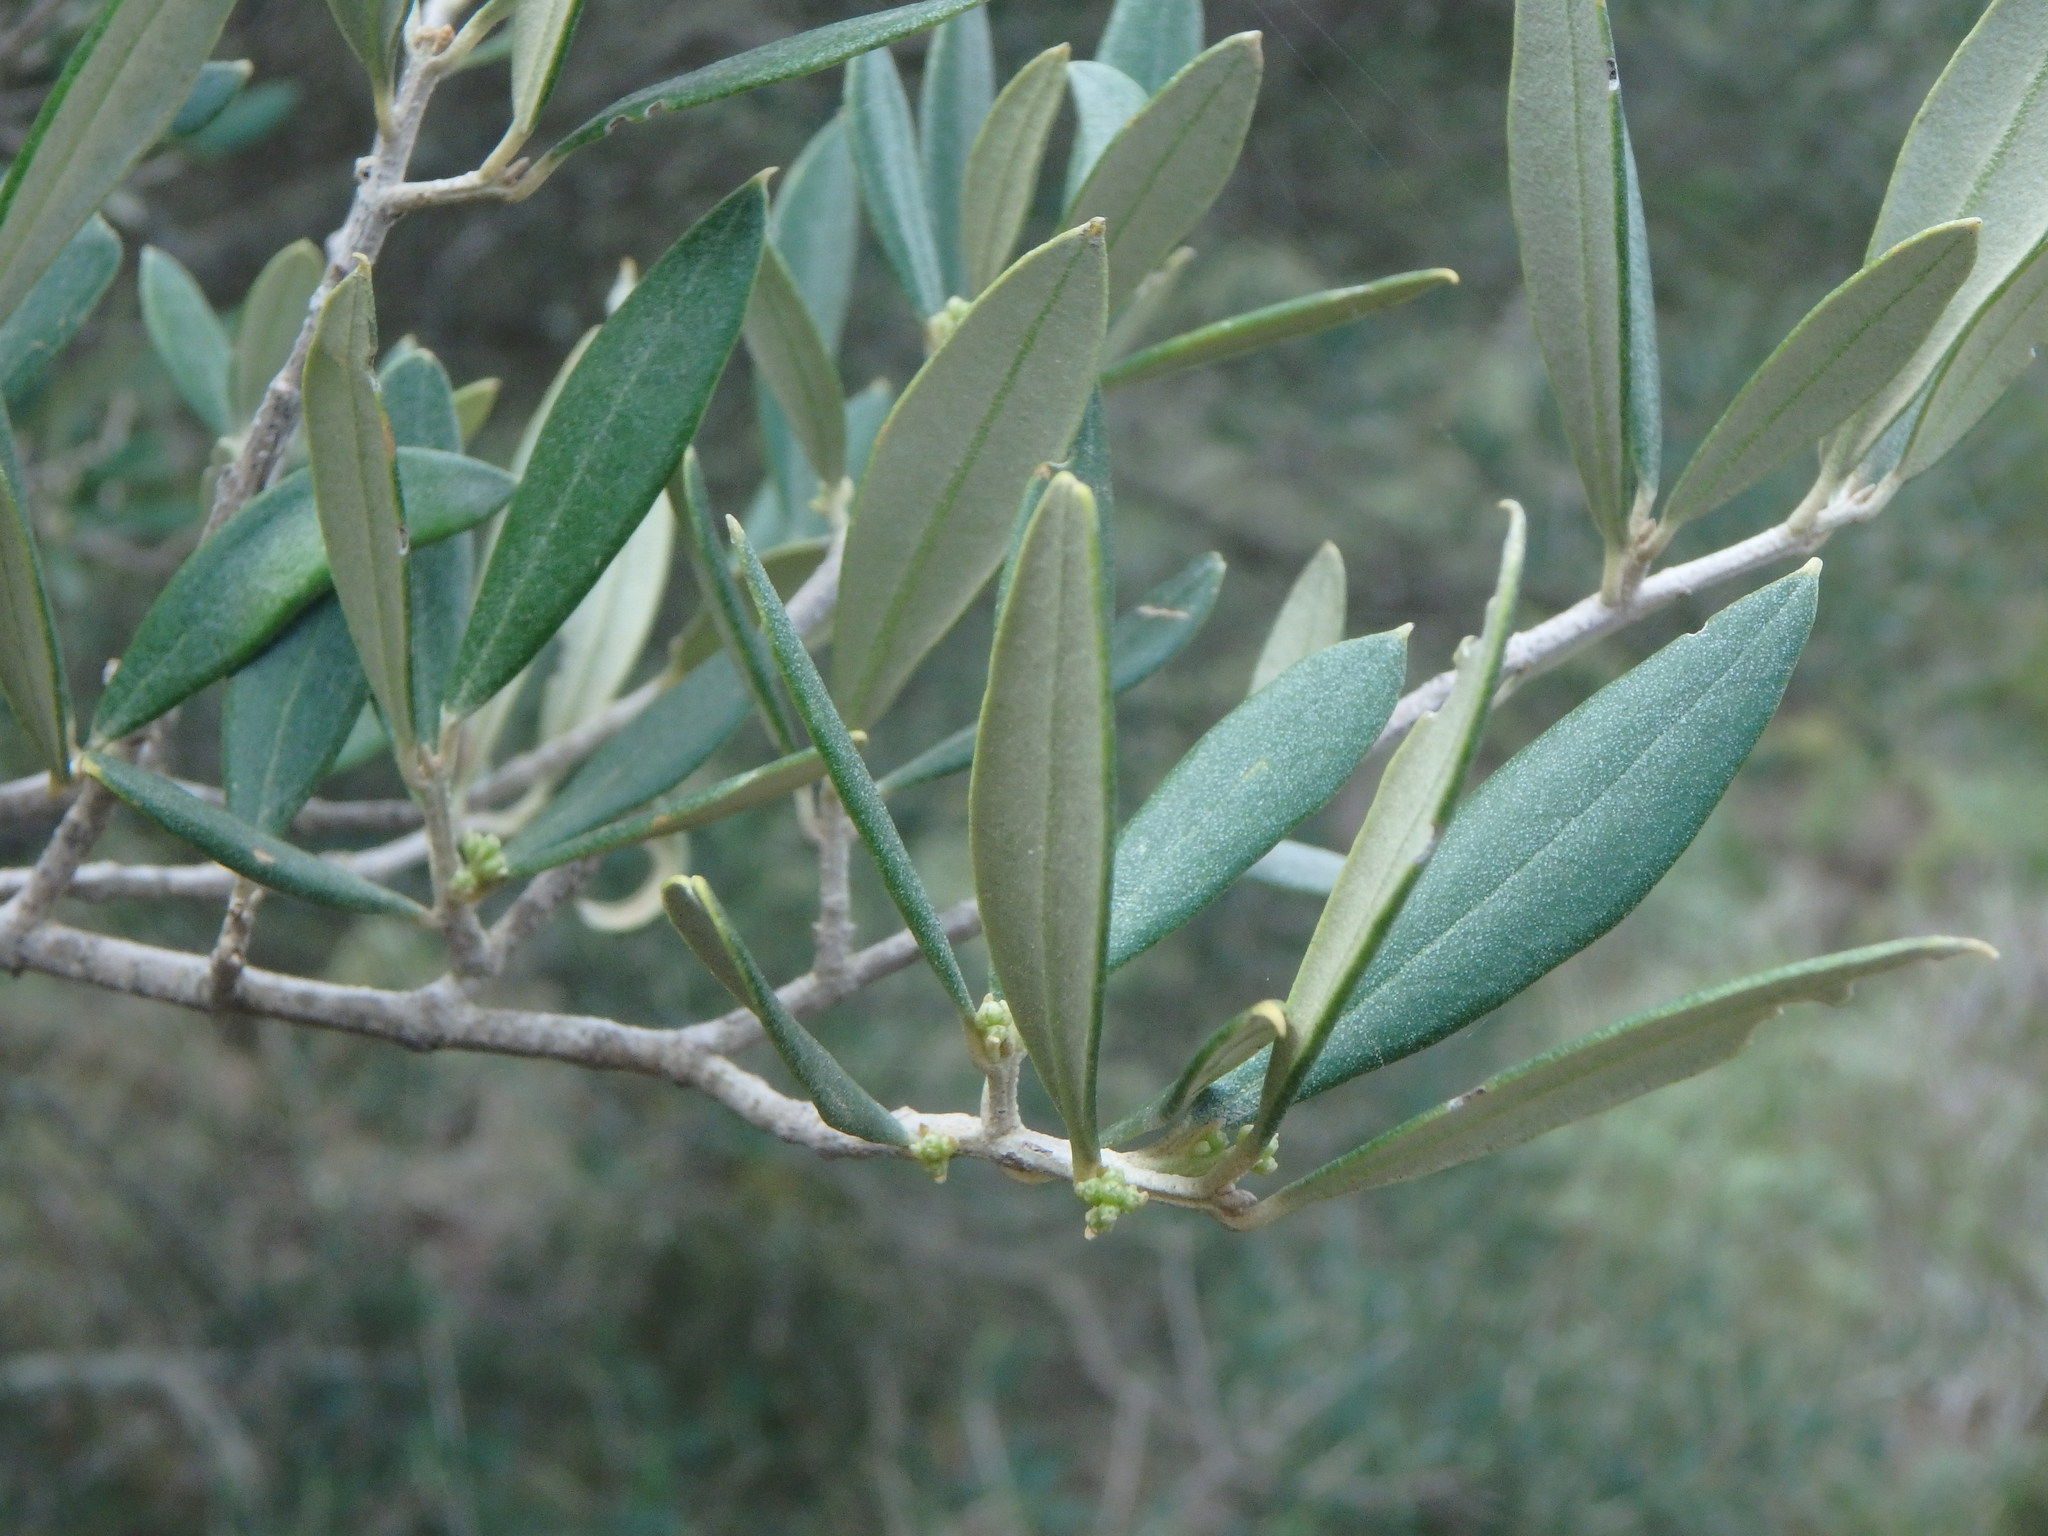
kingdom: Plantae
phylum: Tracheophyta
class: Magnoliopsida
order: Lamiales
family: Oleaceae
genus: Olea
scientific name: Olea europaea
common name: Olive
